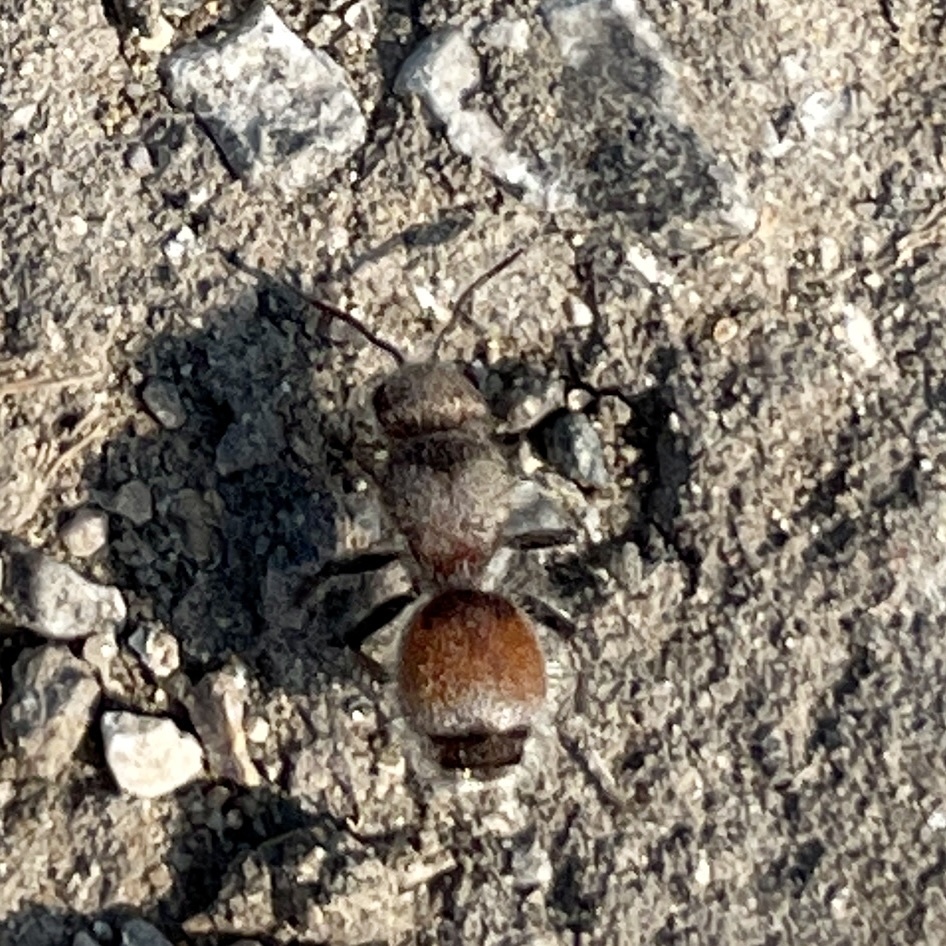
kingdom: Animalia
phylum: Arthropoda
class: Insecta
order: Hymenoptera
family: Mutillidae
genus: Dasymutilla
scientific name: Dasymutilla foxi
